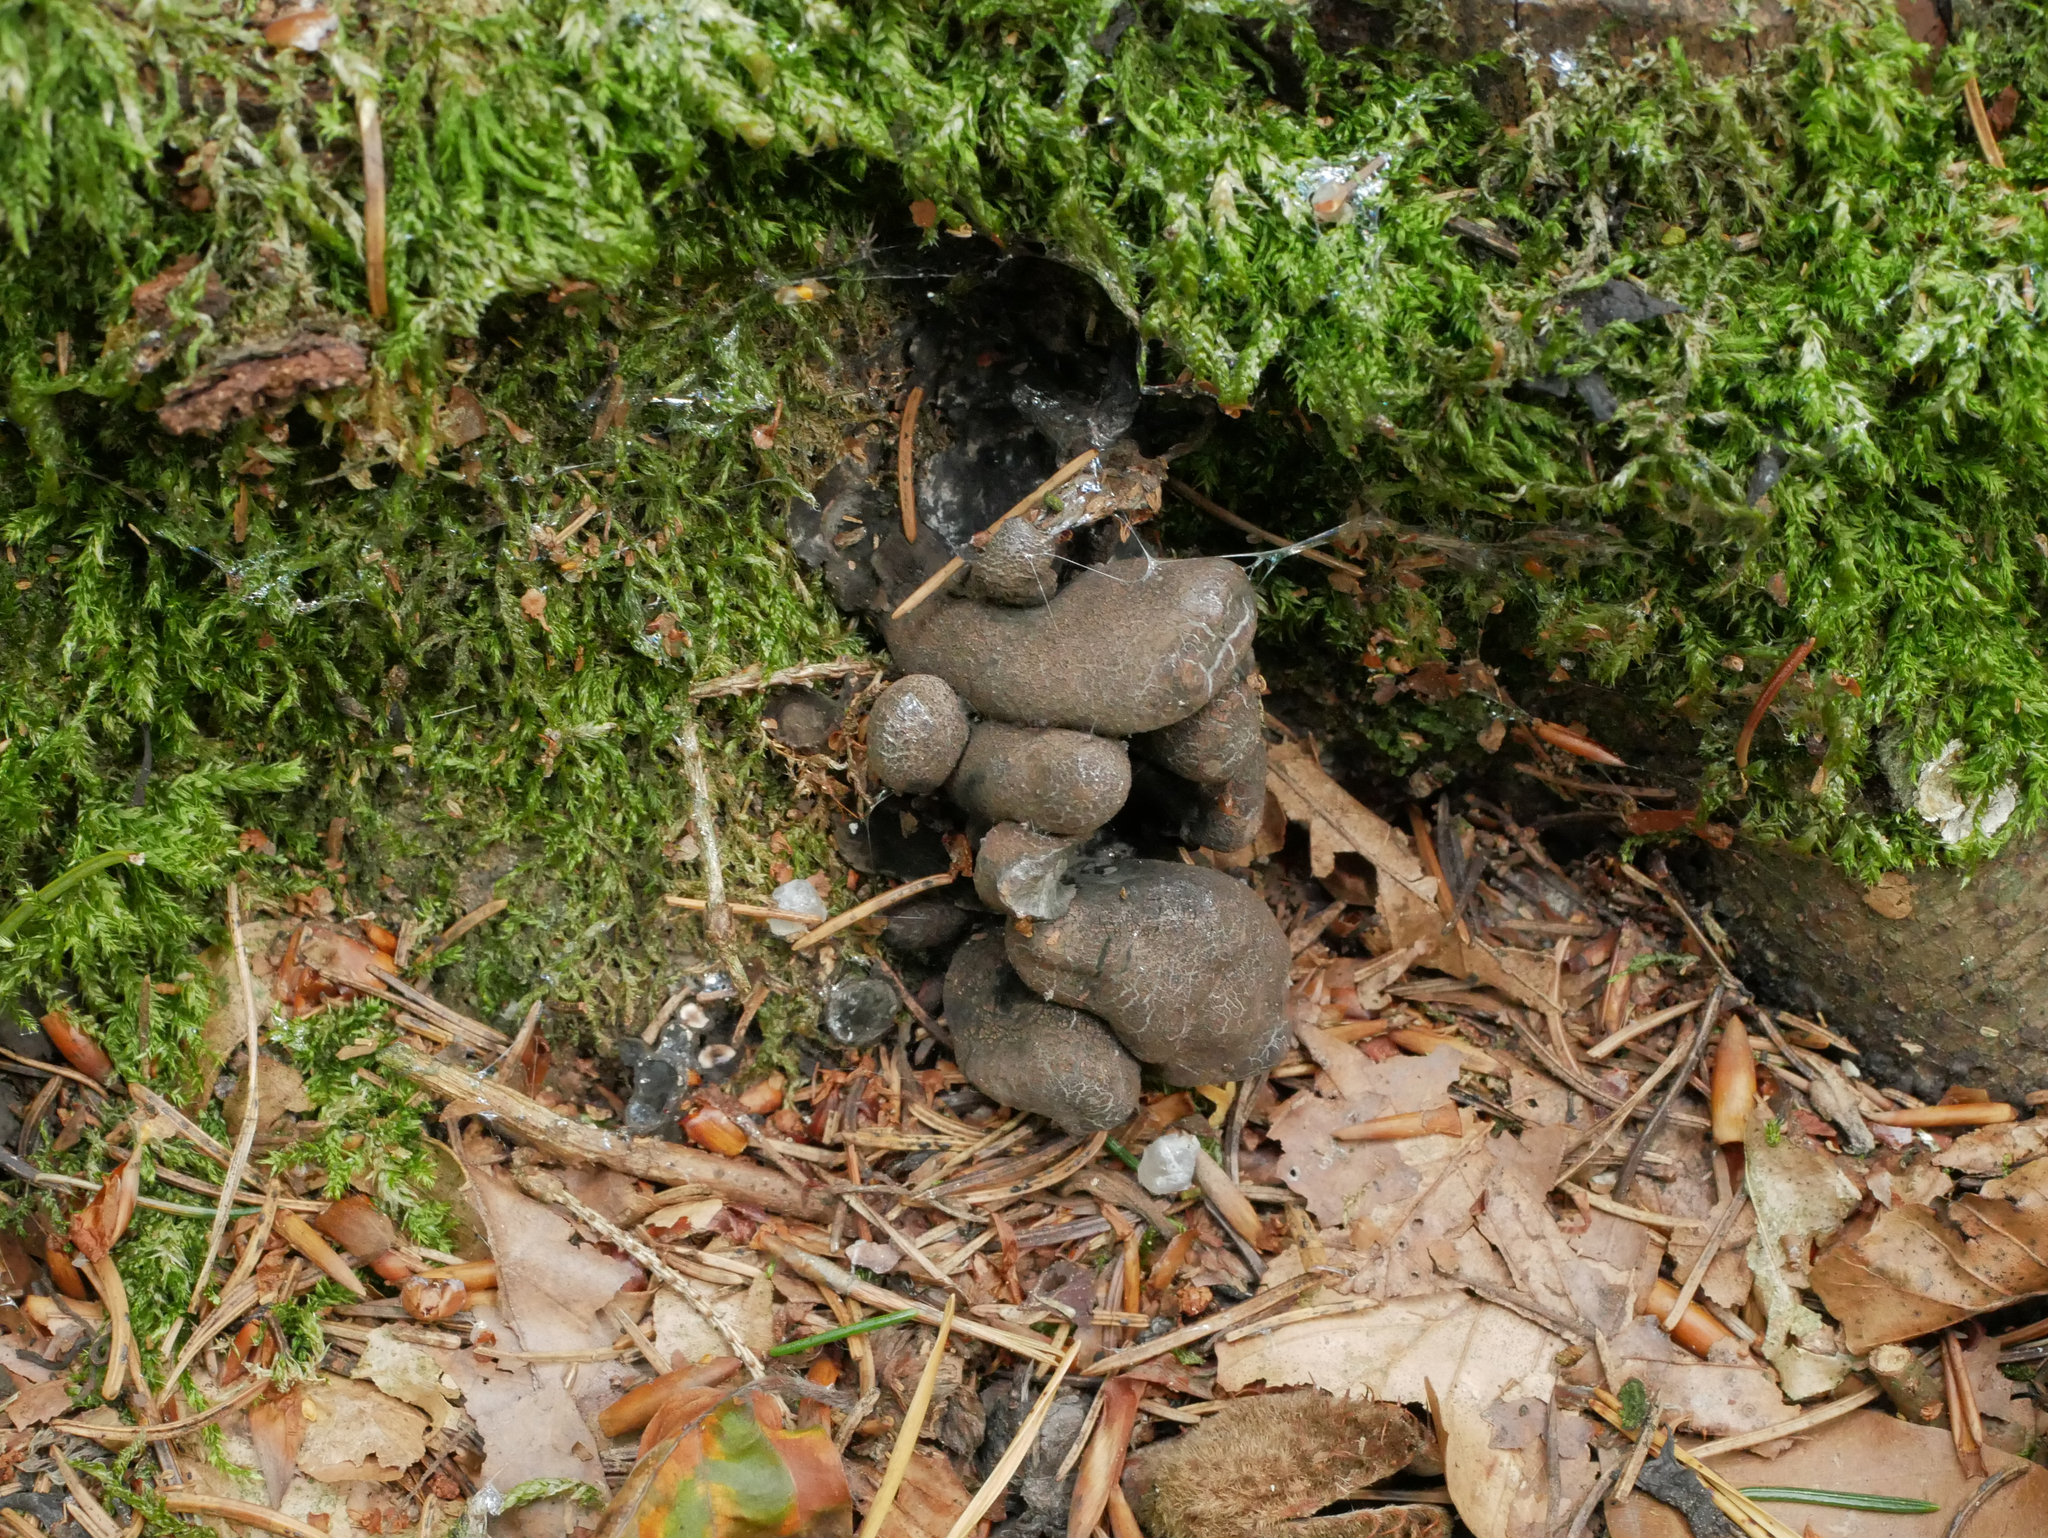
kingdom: Fungi
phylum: Ascomycota
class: Sordariomycetes
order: Xylariales
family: Xylariaceae
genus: Xylaria
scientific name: Xylaria polymorpha
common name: Dead man's fingers
